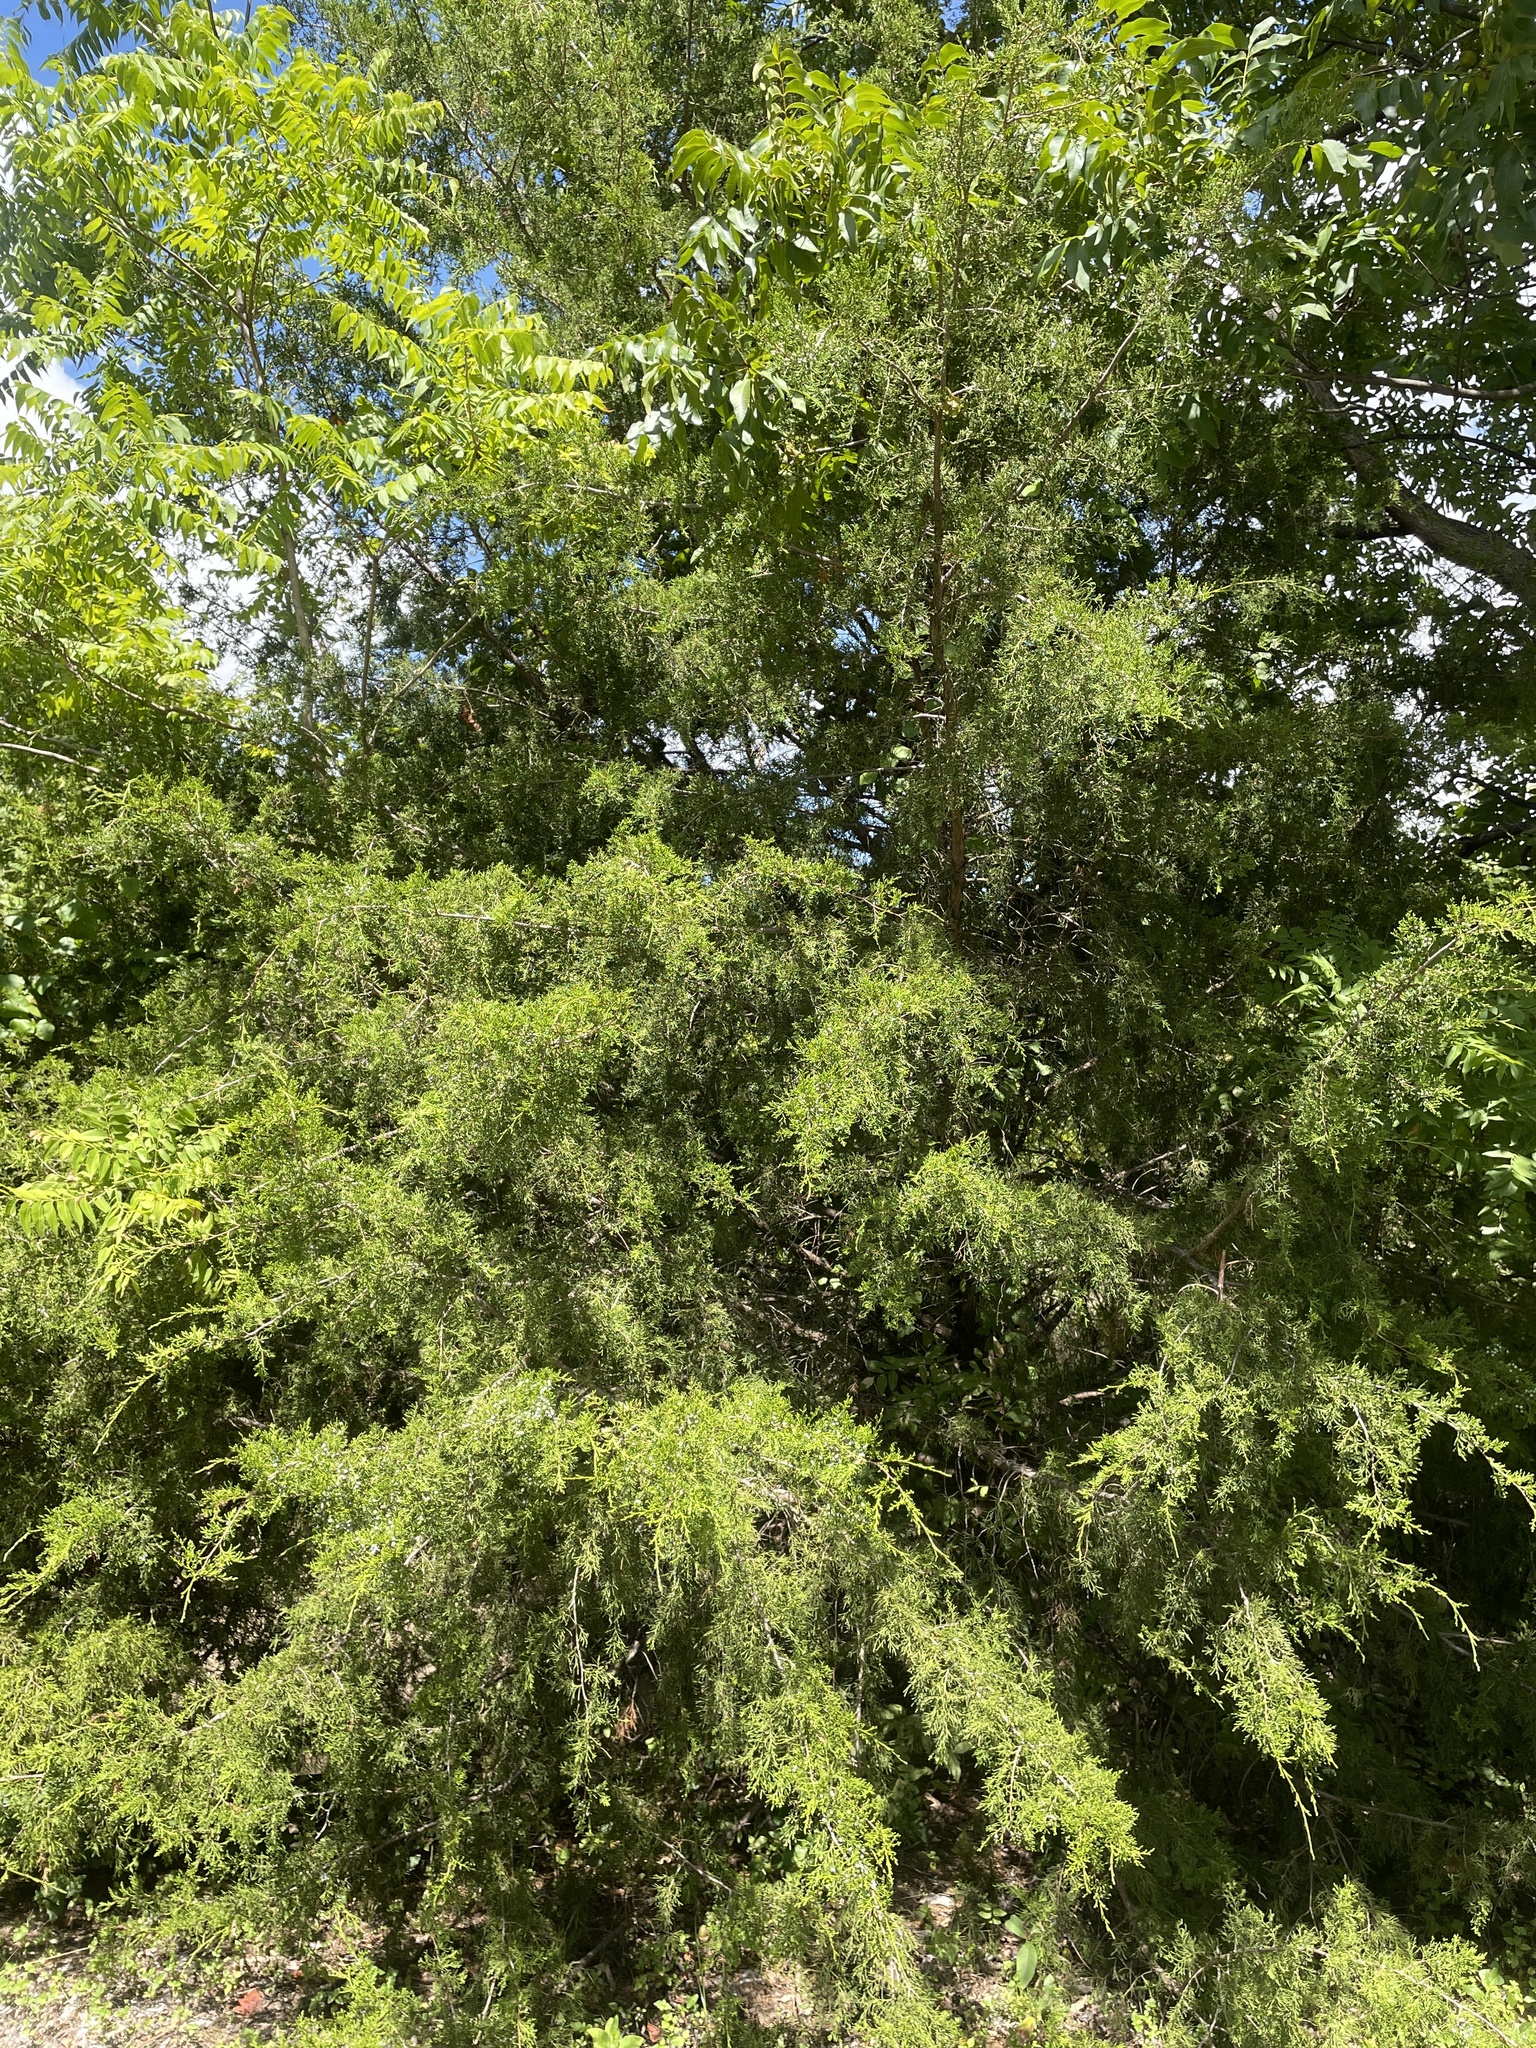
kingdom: Plantae
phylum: Tracheophyta
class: Pinopsida
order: Pinales
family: Cupressaceae
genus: Juniperus
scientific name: Juniperus virginiana
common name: Red juniper
